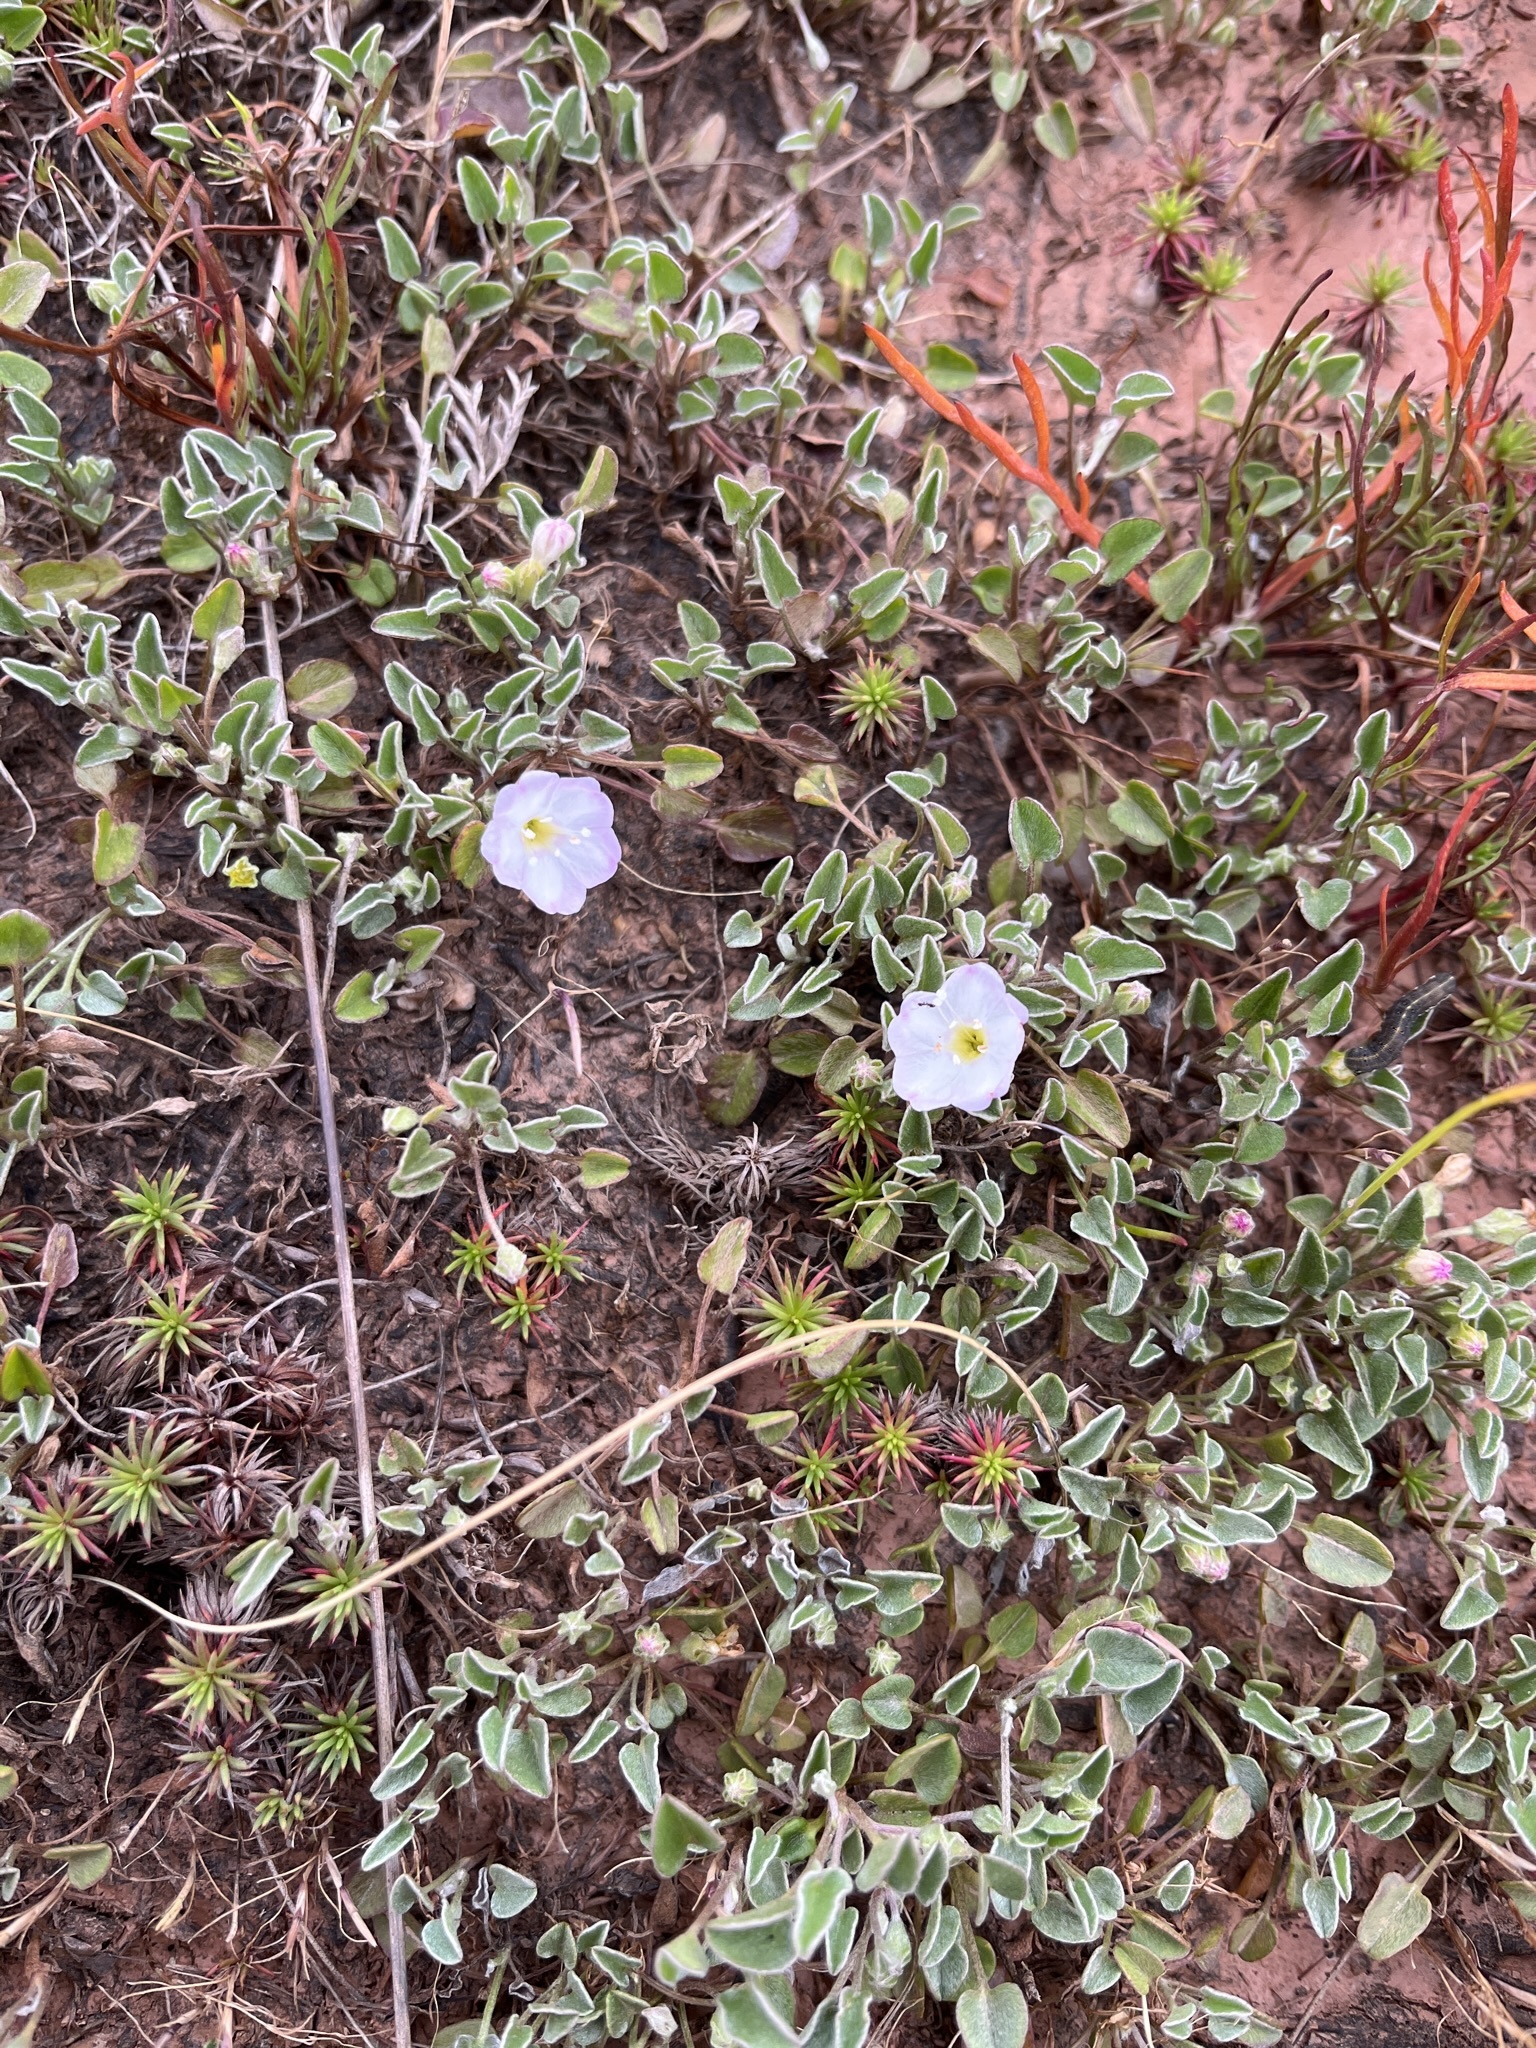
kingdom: Plantae
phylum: Tracheophyta
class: Magnoliopsida
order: Solanales
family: Convolvulaceae
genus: Falkia
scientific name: Falkia repens
